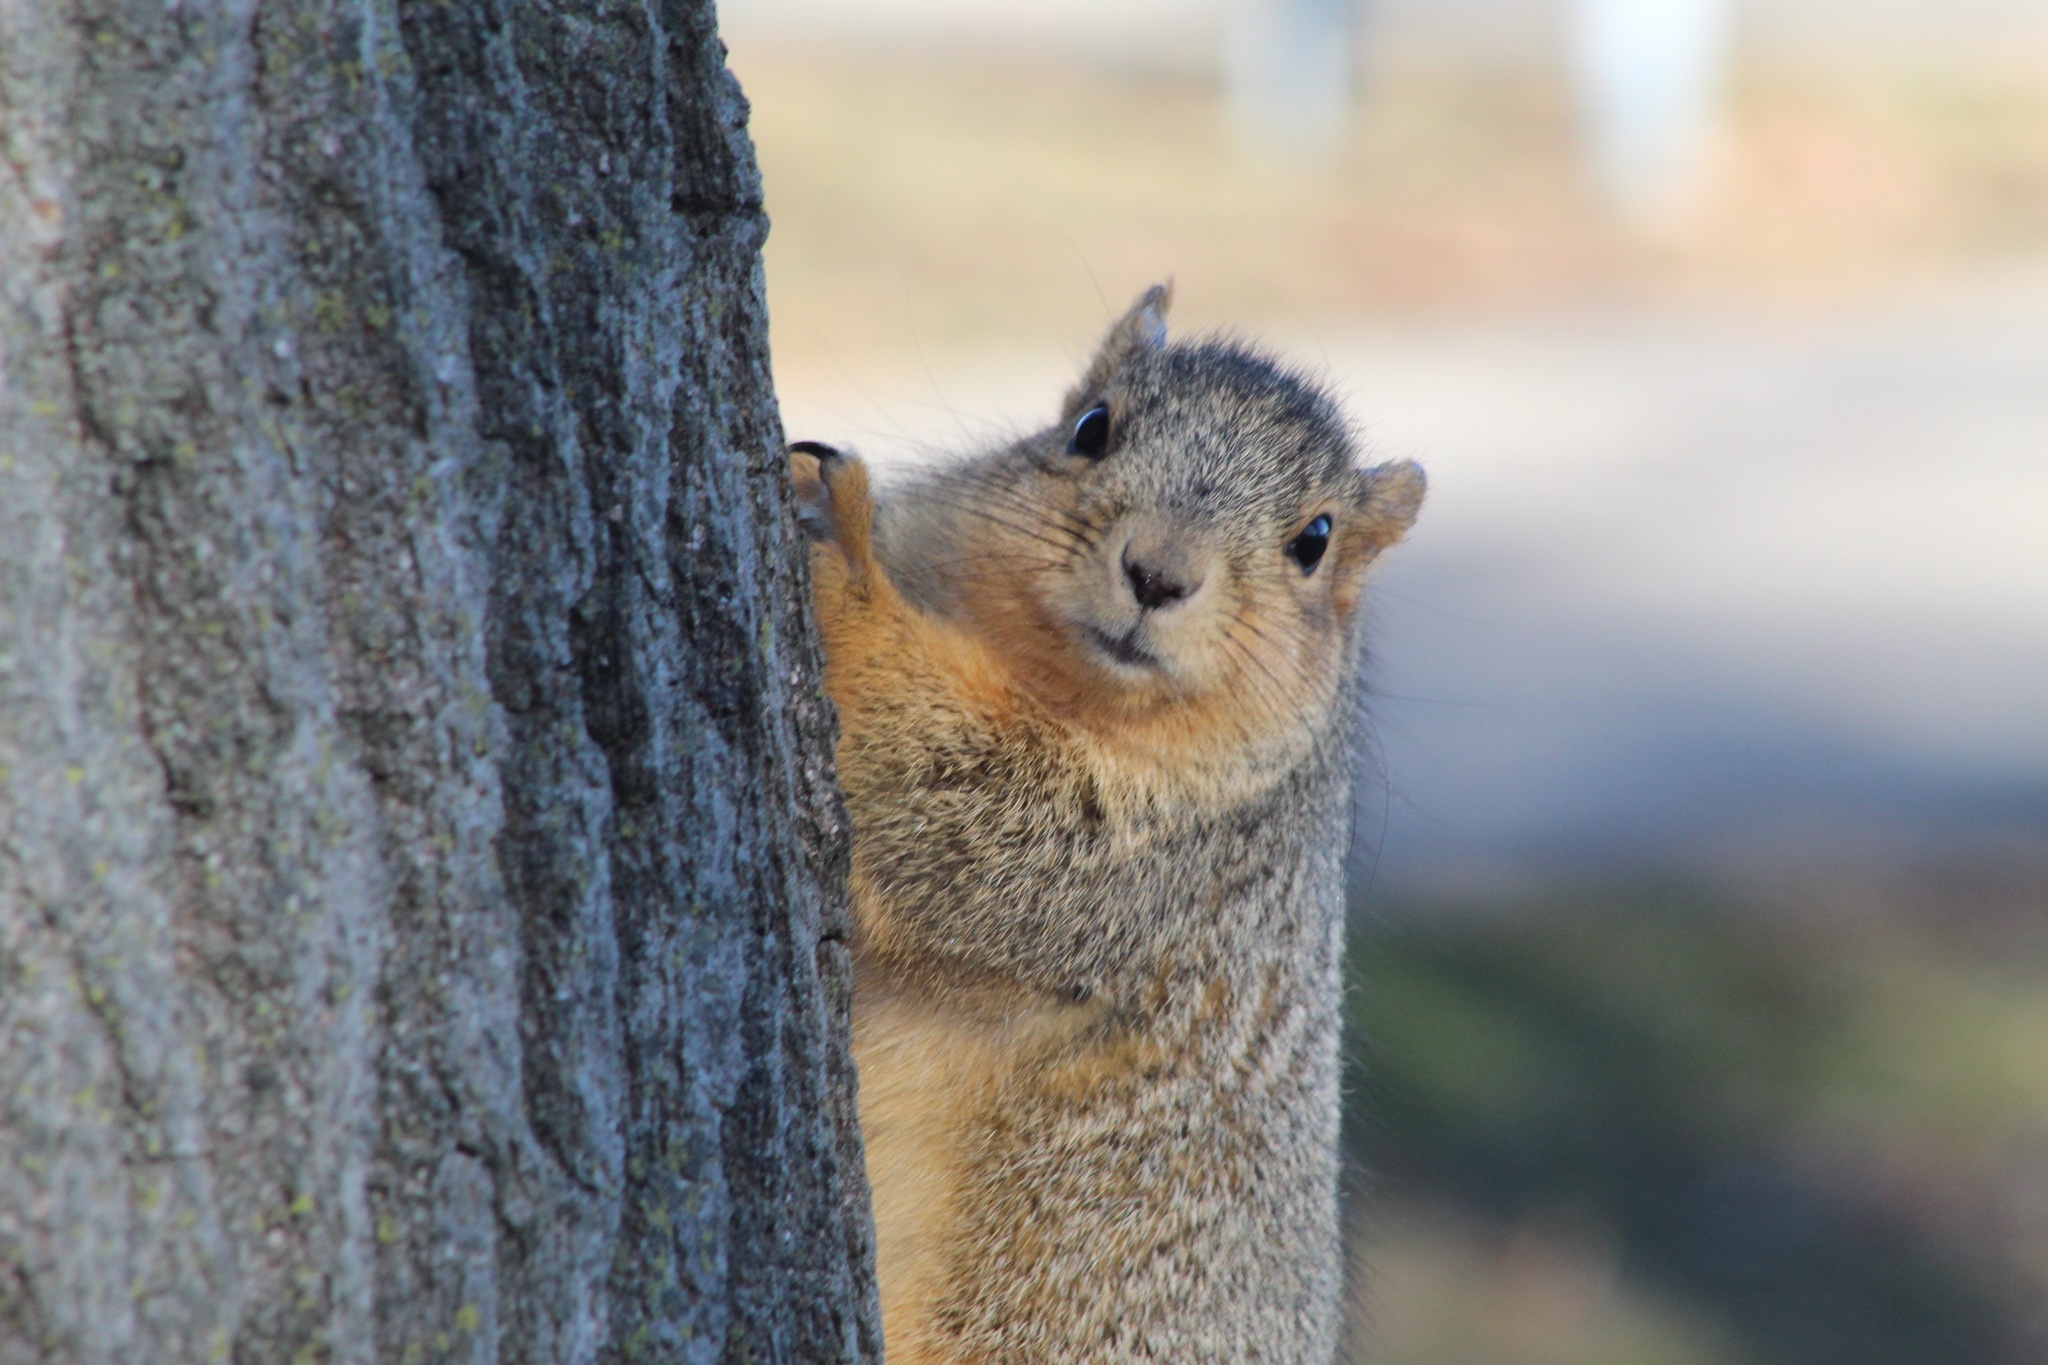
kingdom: Animalia
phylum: Chordata
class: Mammalia
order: Rodentia
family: Sciuridae
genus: Sciurus
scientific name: Sciurus niger
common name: Fox squirrel
